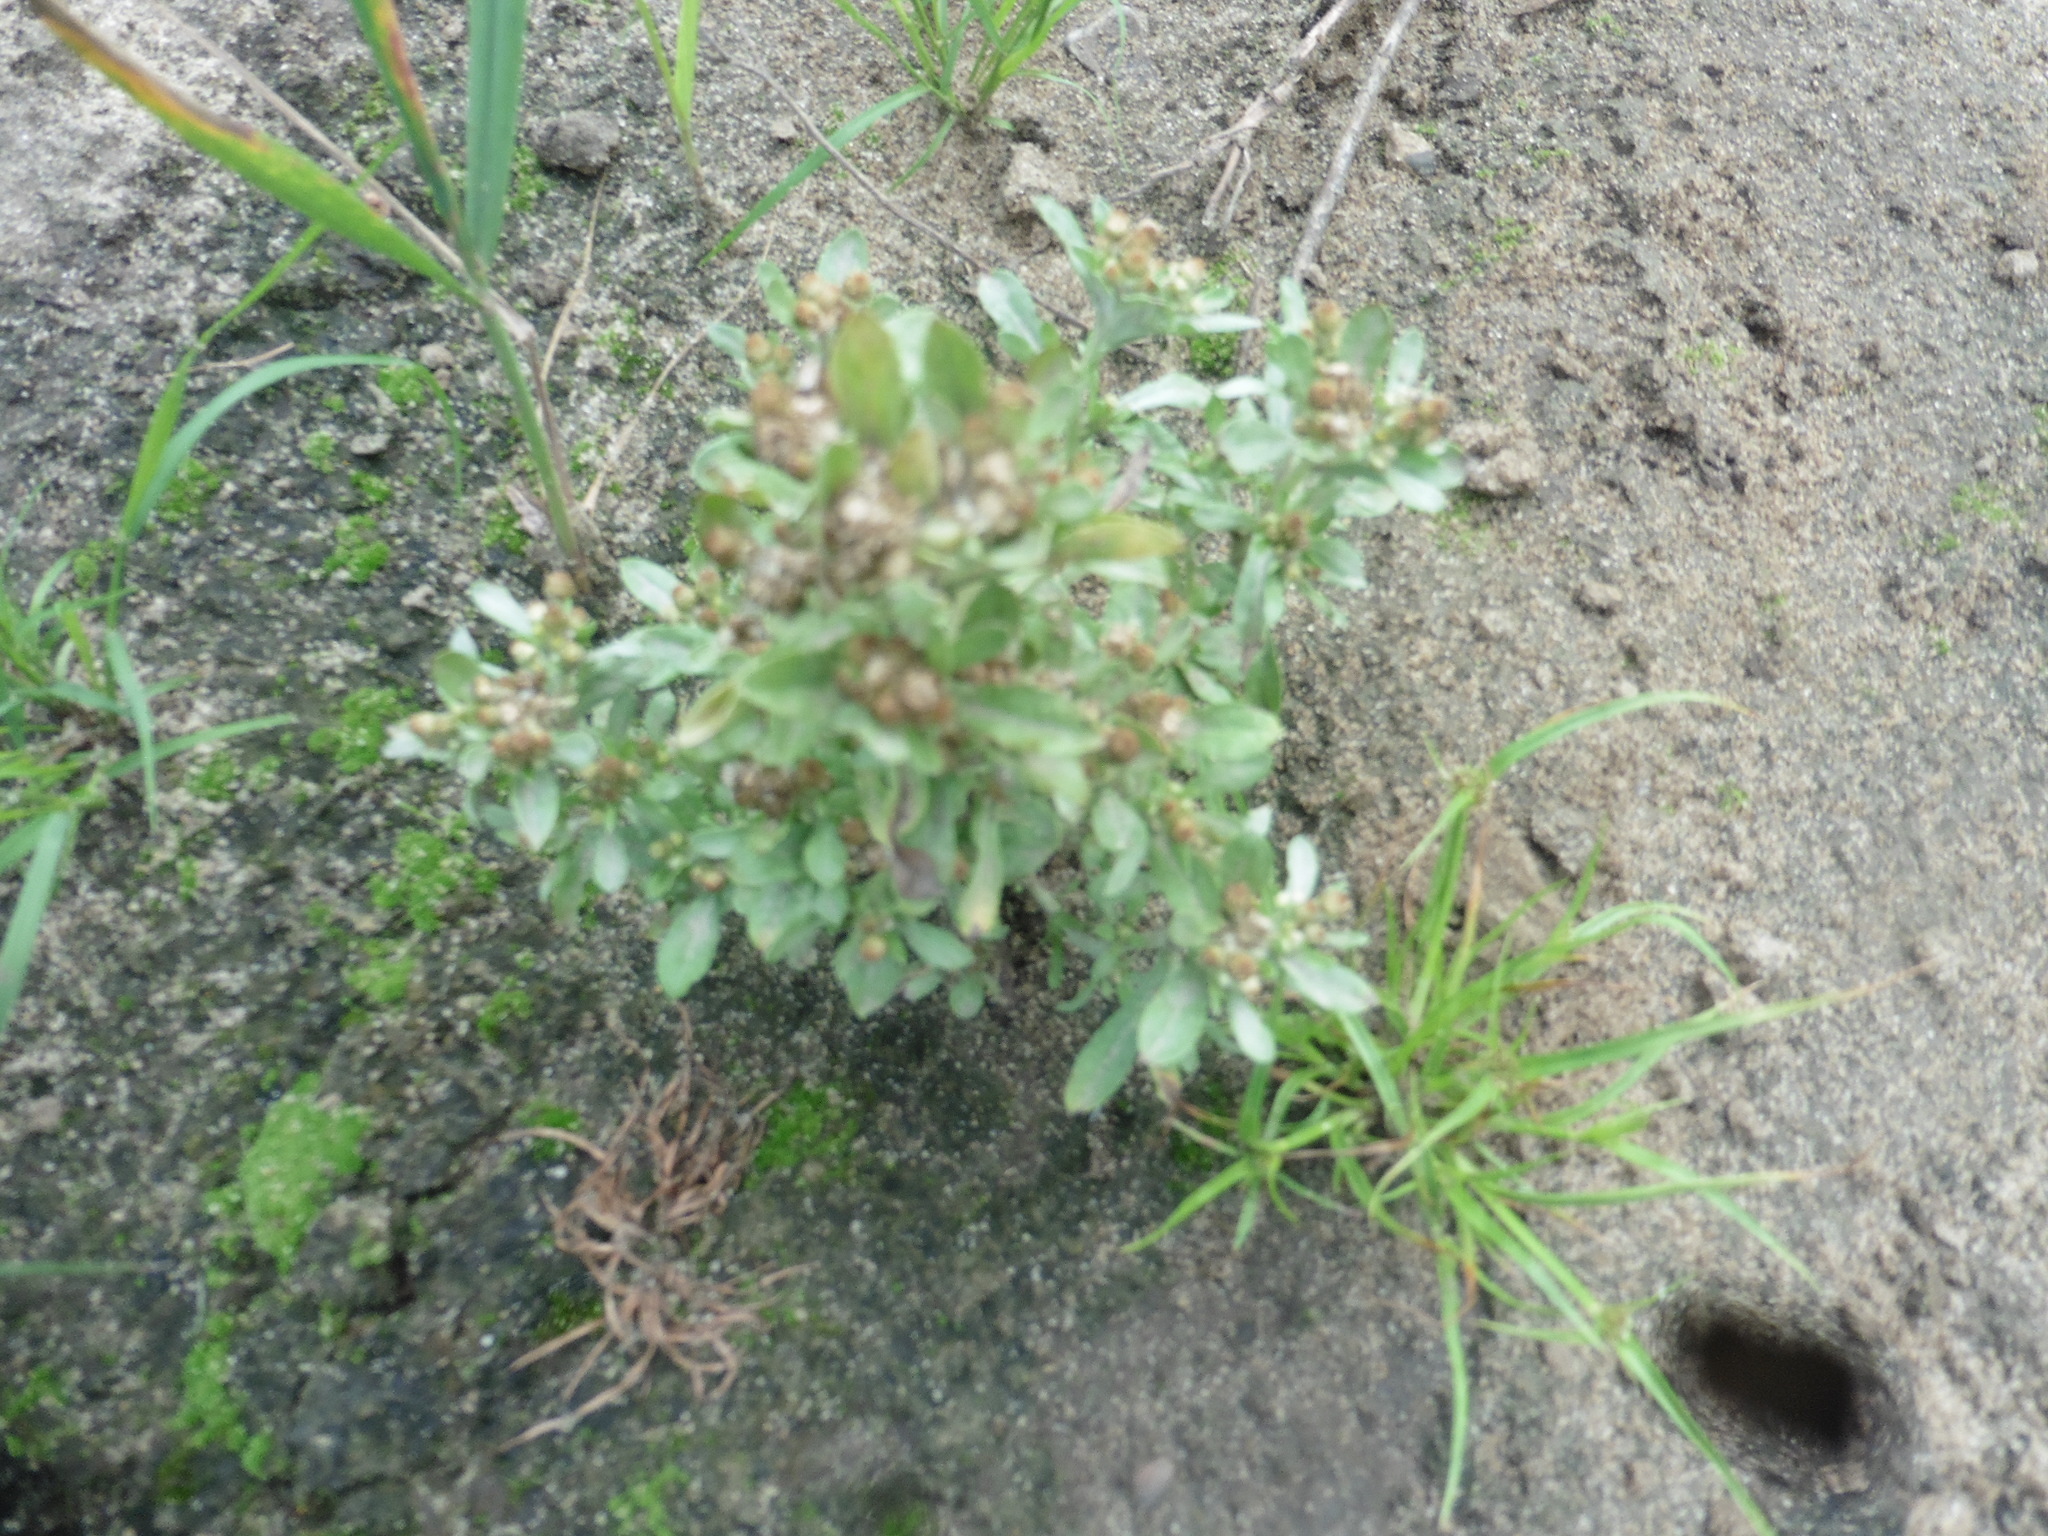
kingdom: Plantae
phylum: Tracheophyta
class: Magnoliopsida
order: Asterales
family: Asteraceae
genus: Gnaphalium
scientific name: Gnaphalium uliginosum
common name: Marsh cudweed
